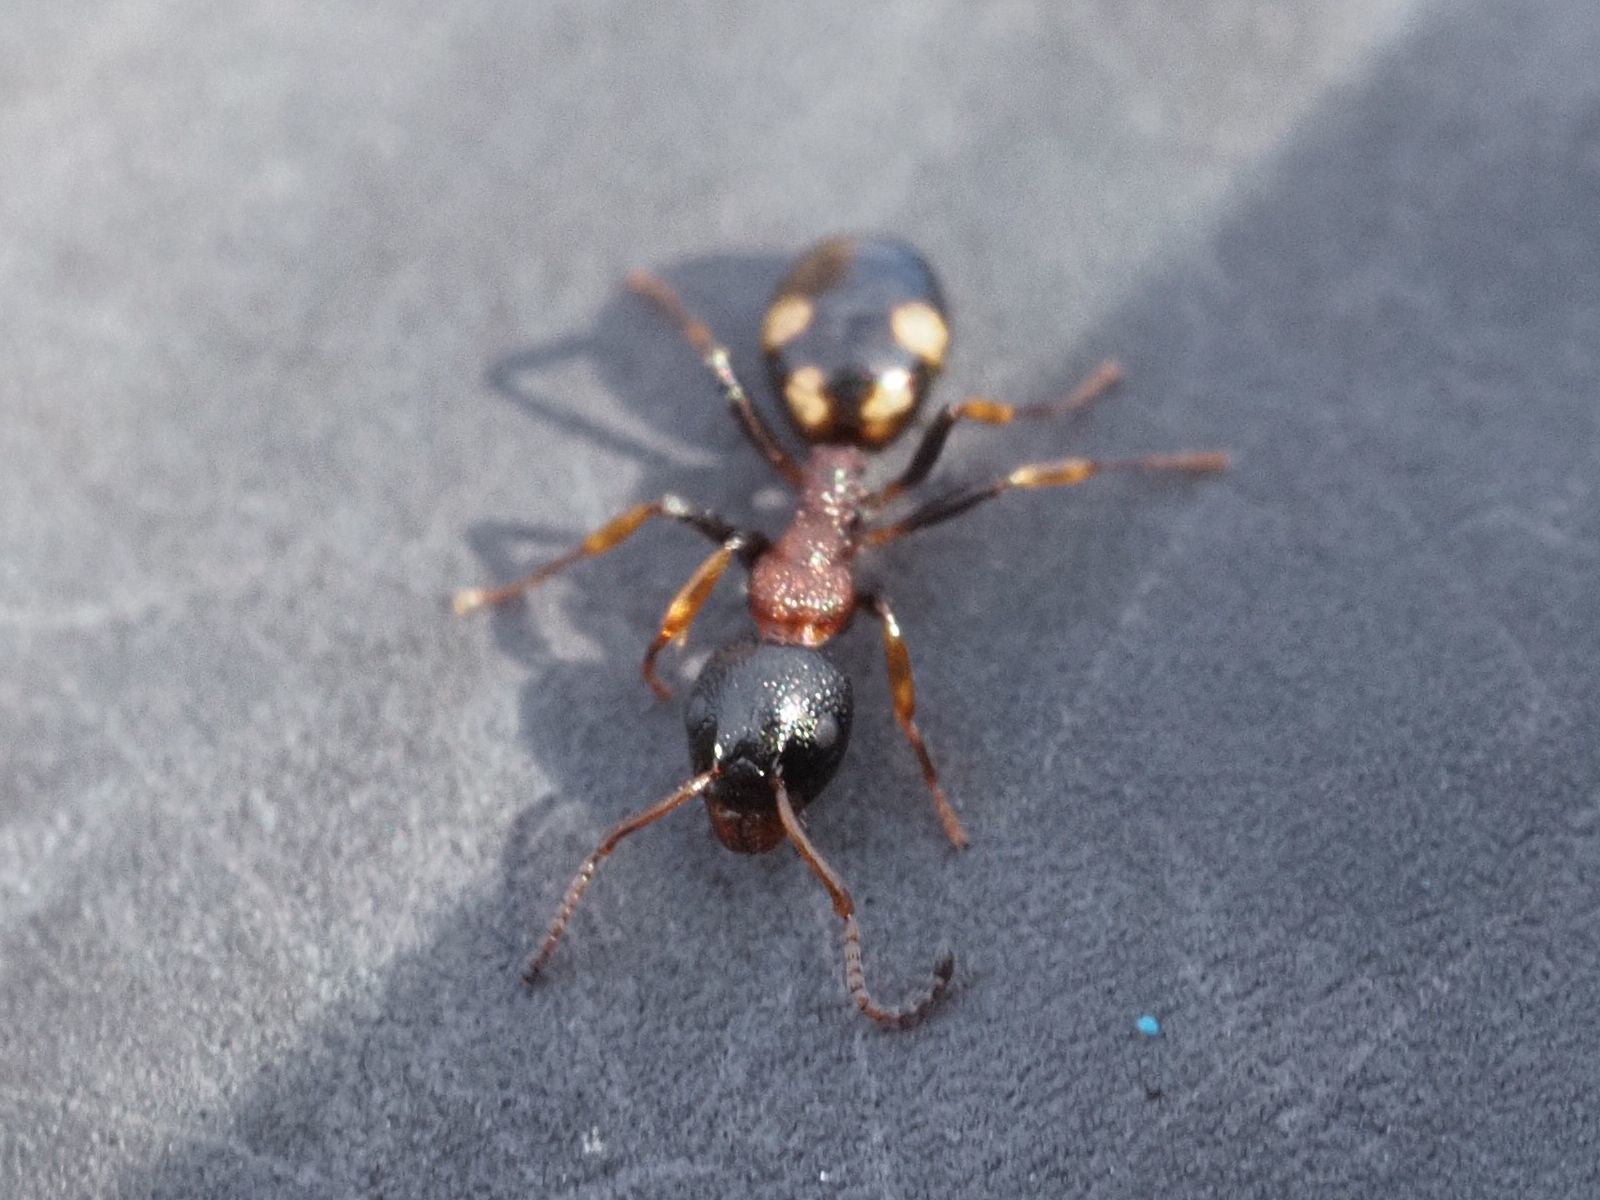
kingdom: Animalia
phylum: Arthropoda
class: Insecta
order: Hymenoptera
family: Formicidae
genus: Dolichoderus
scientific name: Dolichoderus quadripunctatus
